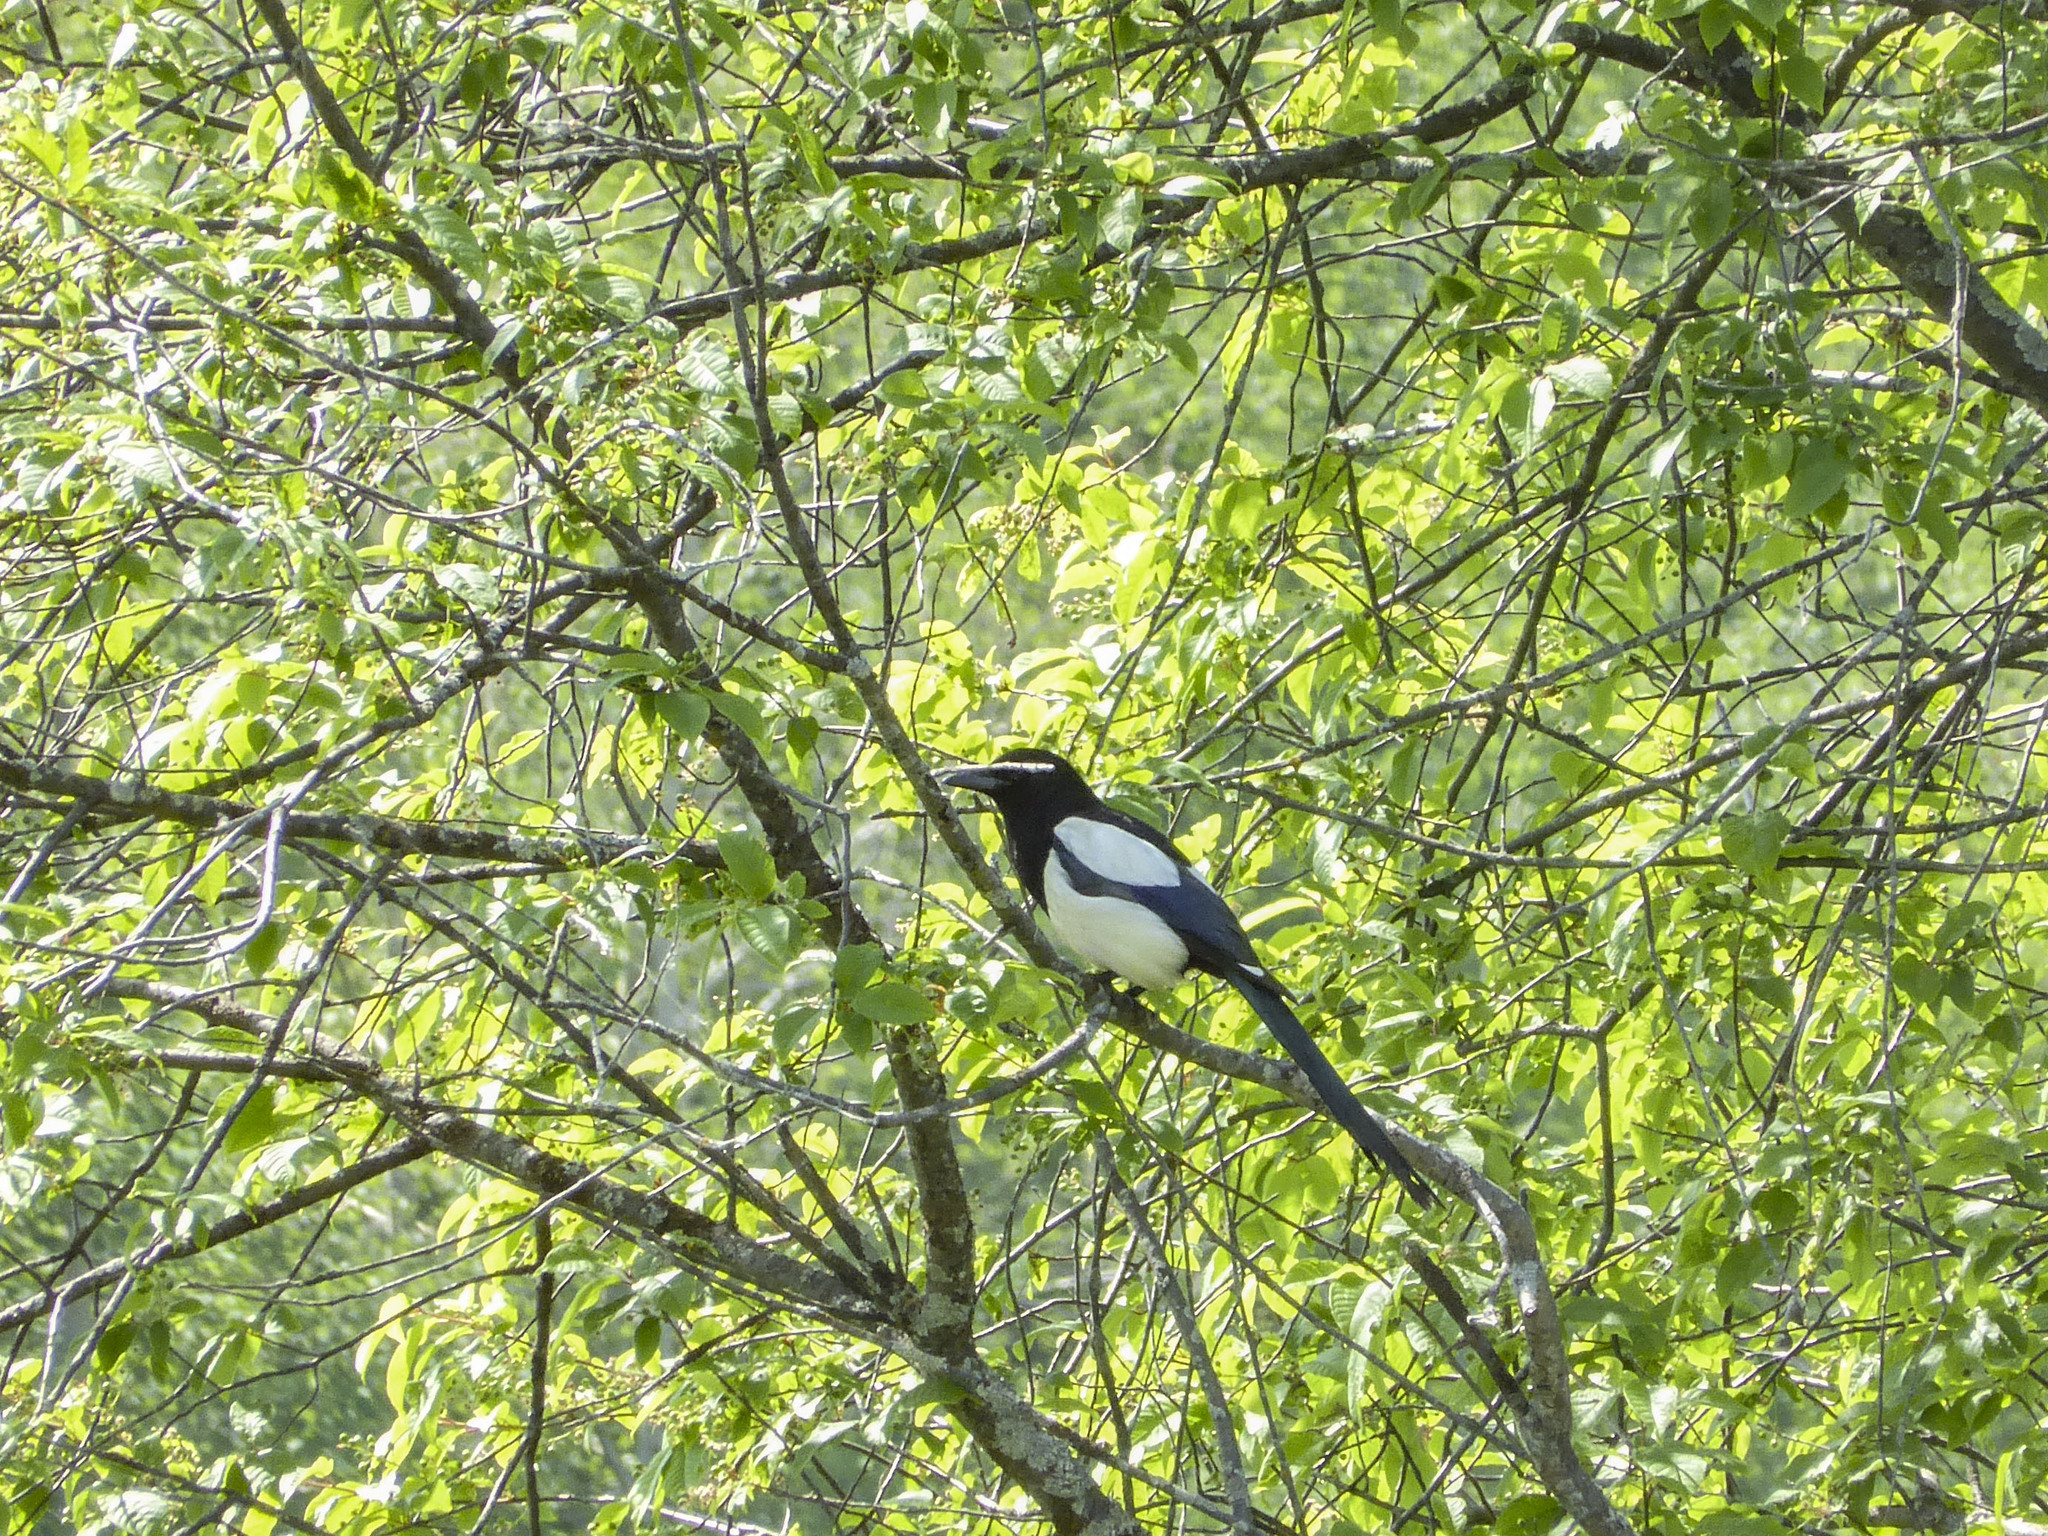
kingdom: Animalia
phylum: Chordata
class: Aves
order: Passeriformes
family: Corvidae
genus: Pica
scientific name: Pica pica
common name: Eurasian magpie
